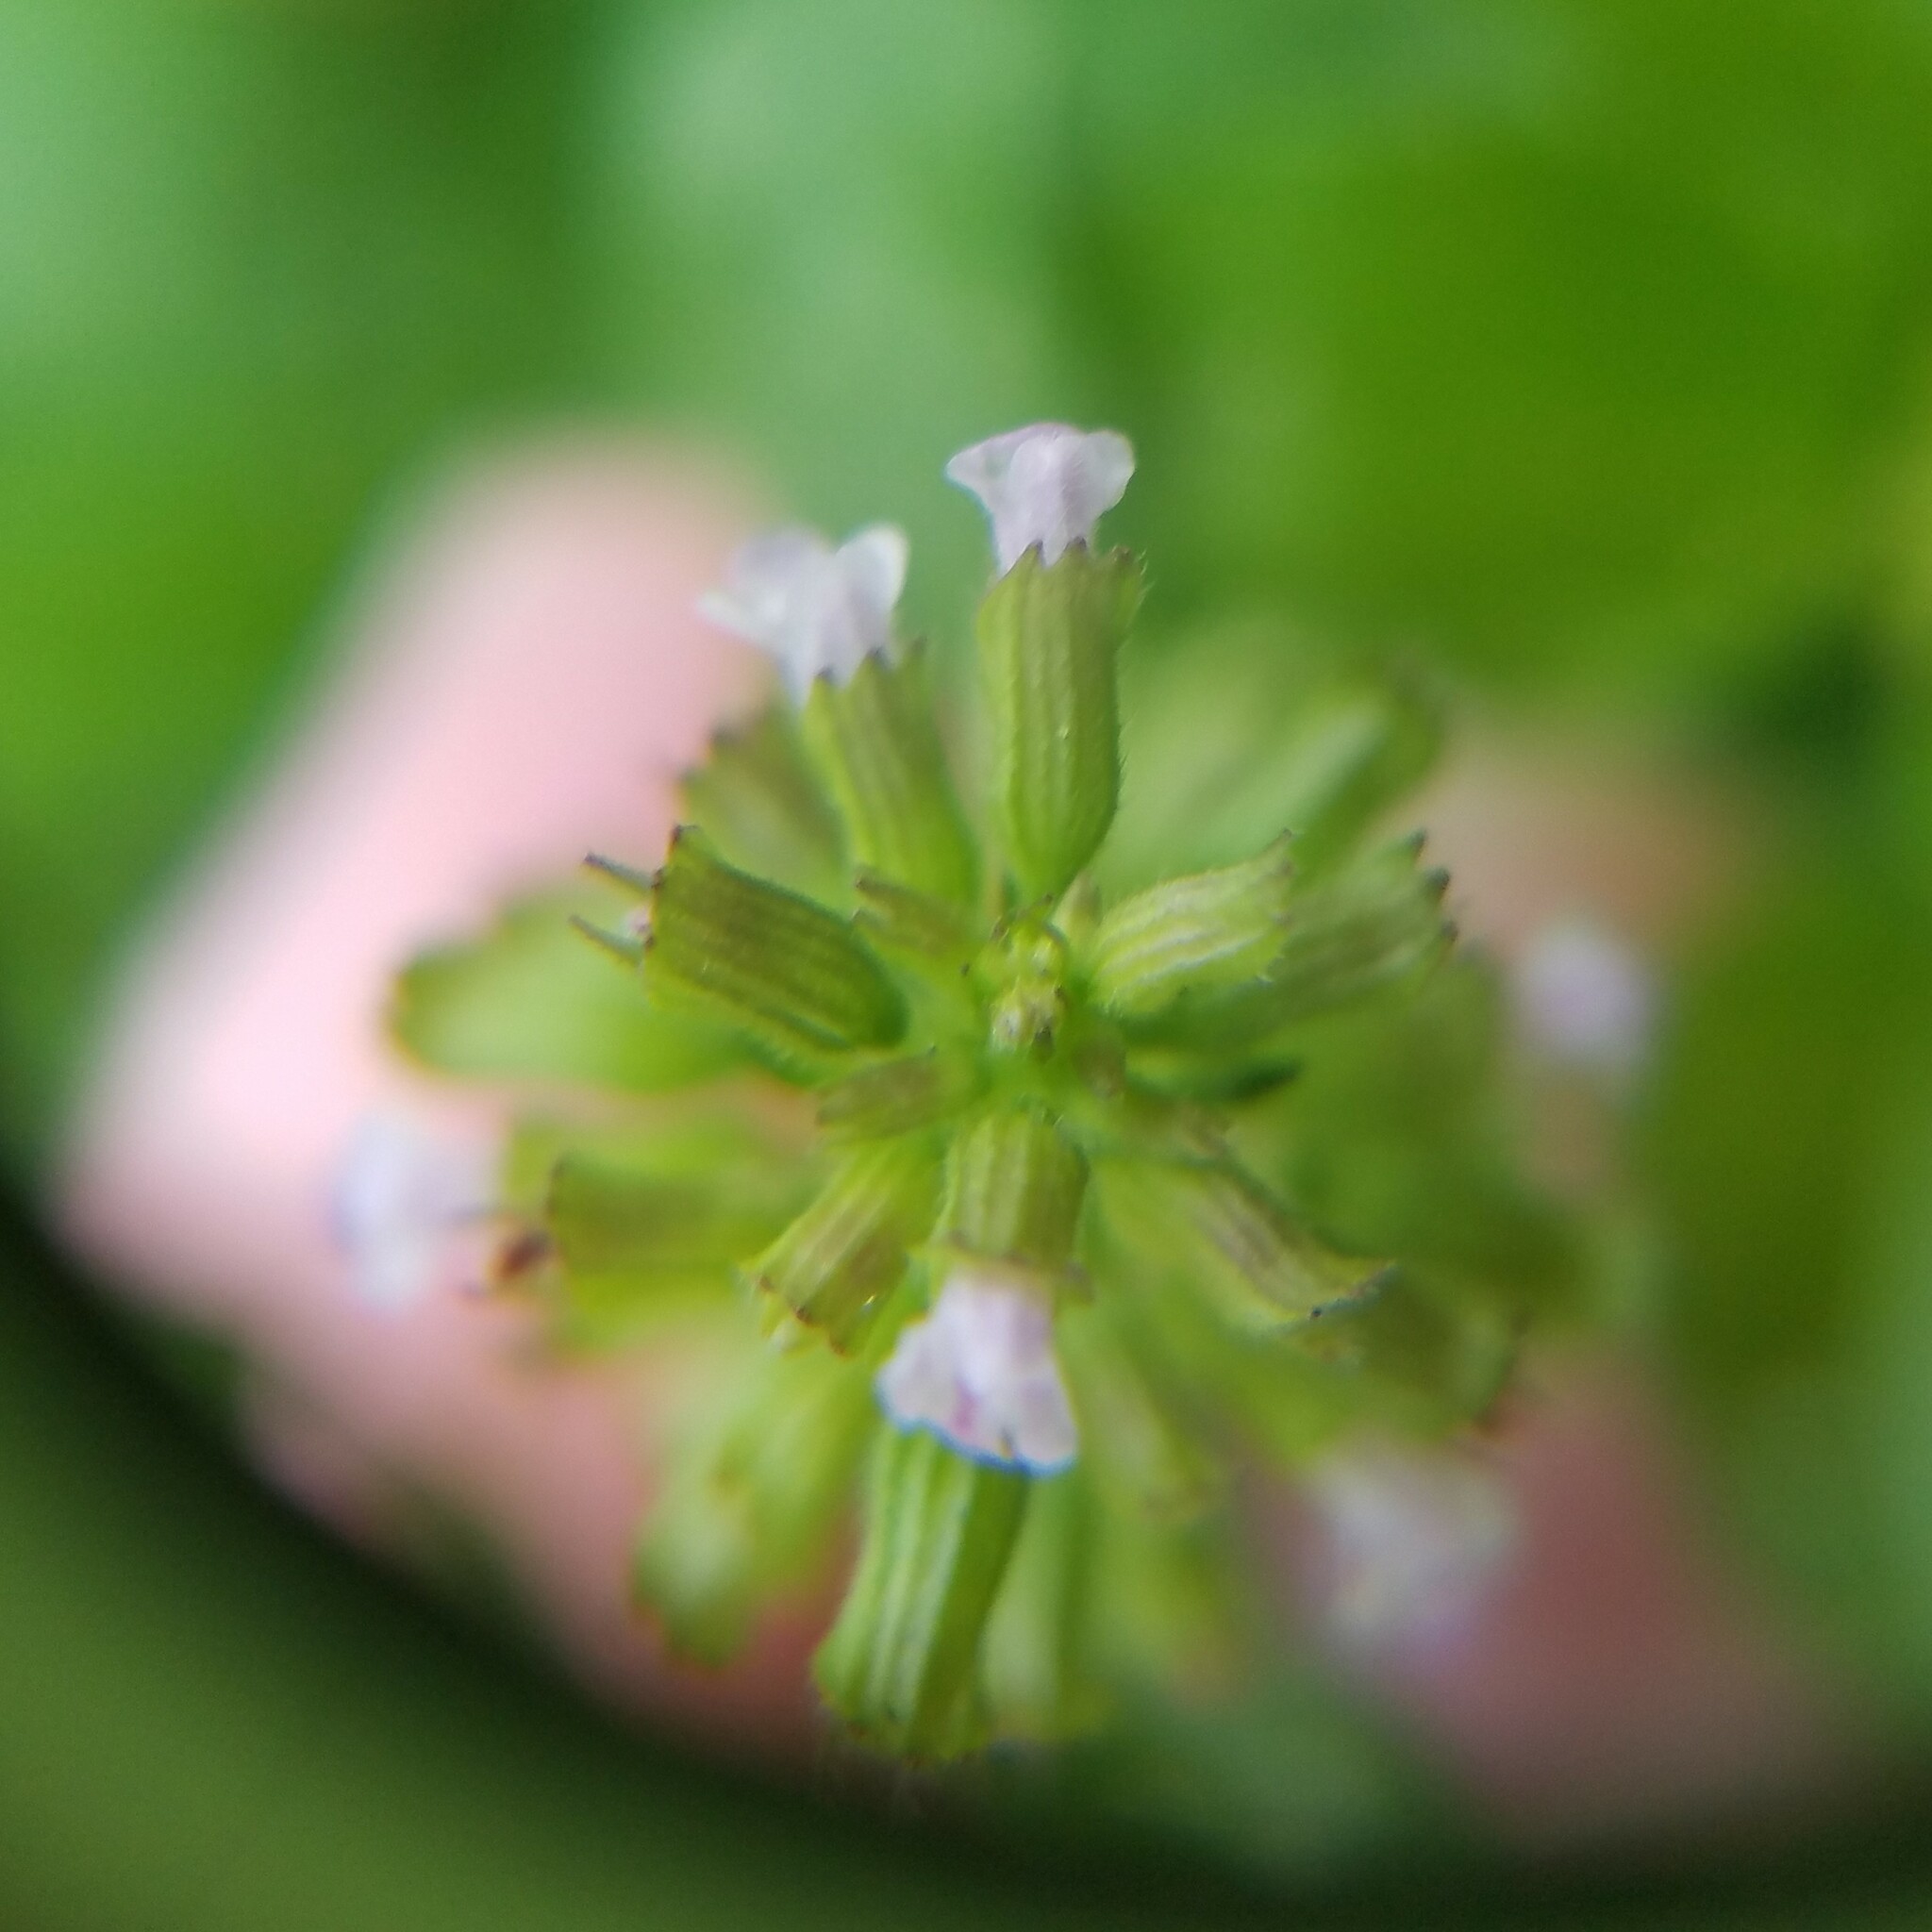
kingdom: Plantae
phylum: Tracheophyta
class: Magnoliopsida
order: Lamiales
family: Lamiaceae
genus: Clinopodium
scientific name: Clinopodium gracile
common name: Slender wild basil
